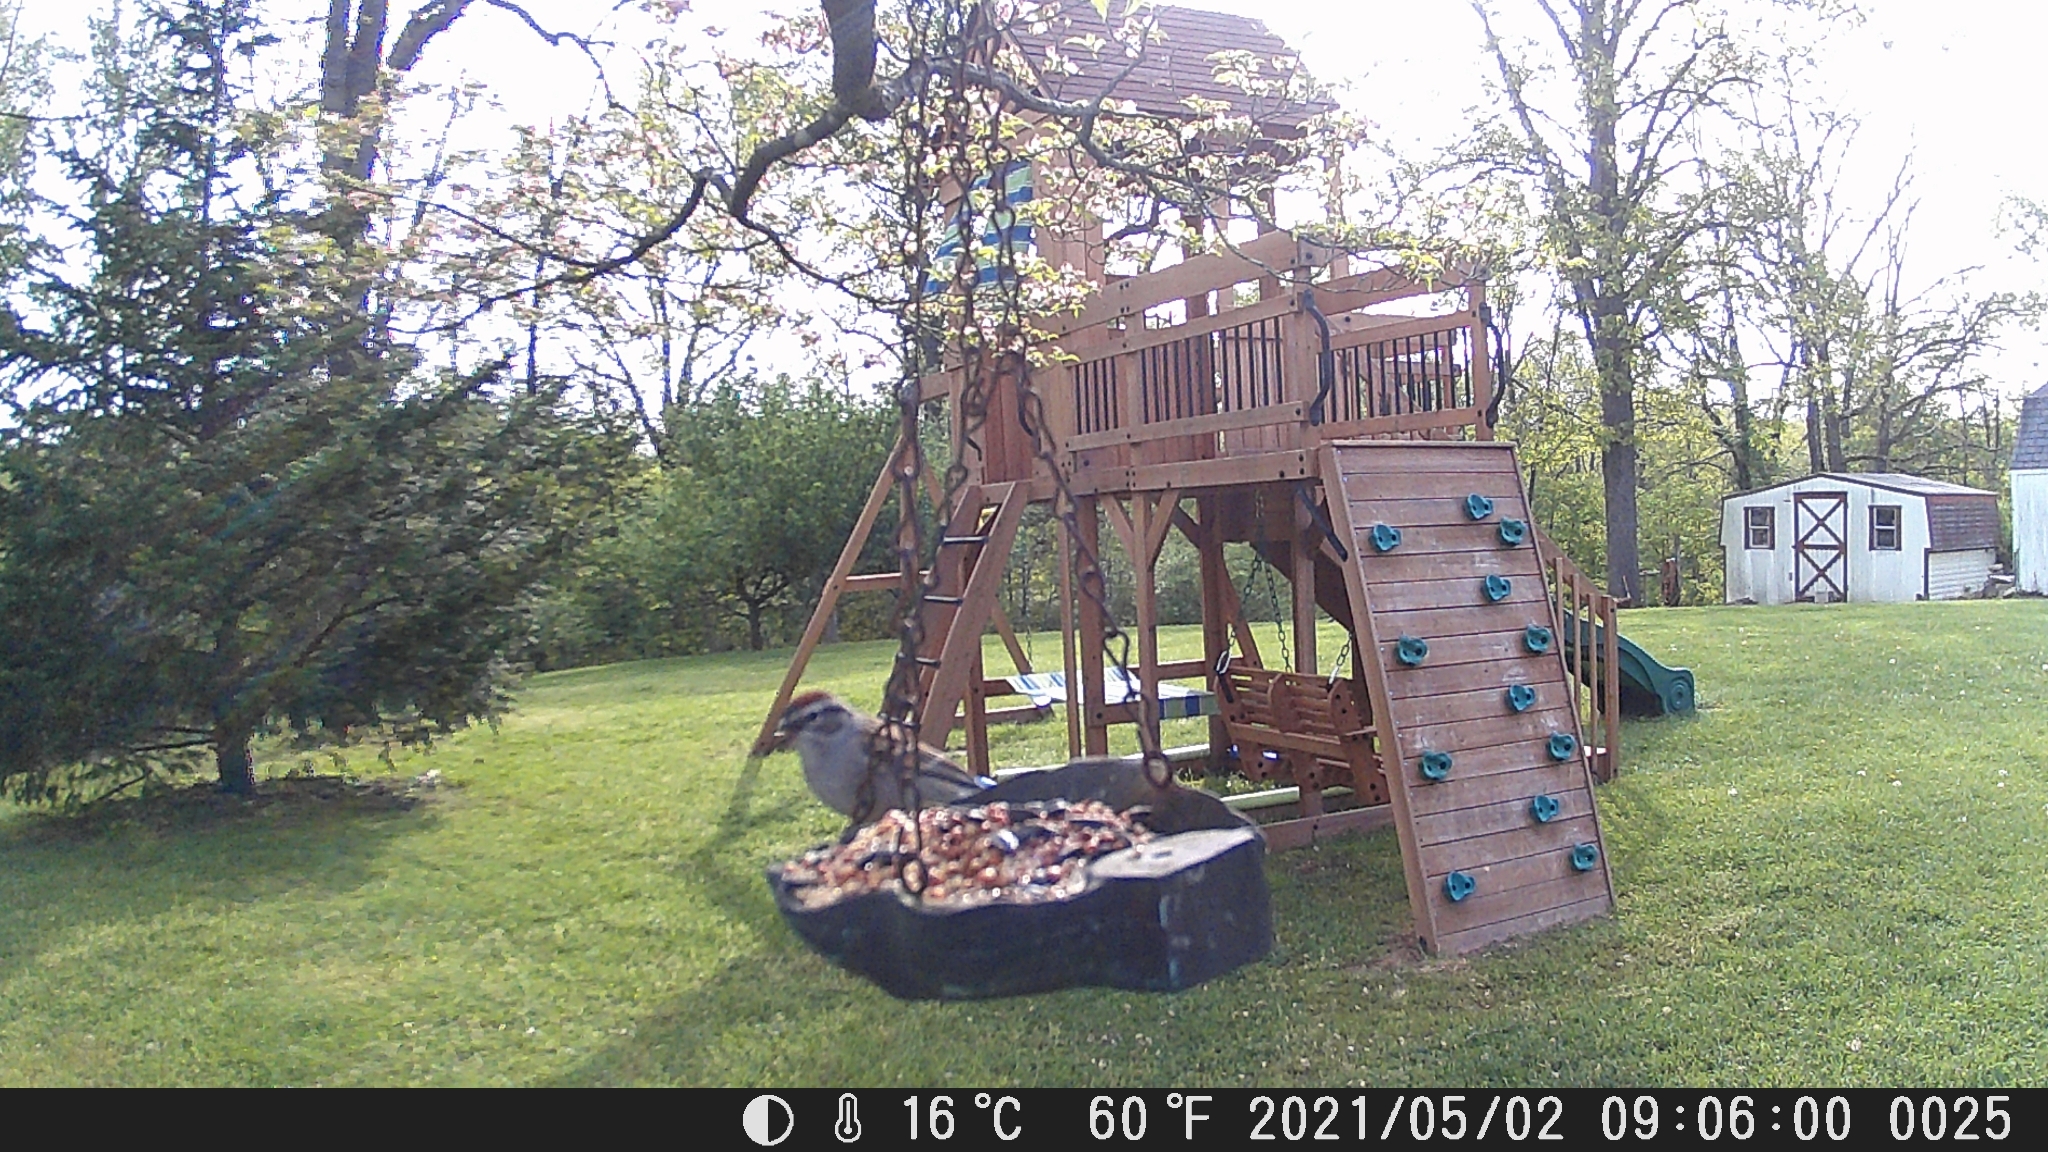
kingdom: Animalia
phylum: Chordata
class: Aves
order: Passeriformes
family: Passerellidae
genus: Spizella
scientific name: Spizella passerina
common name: Chipping sparrow
